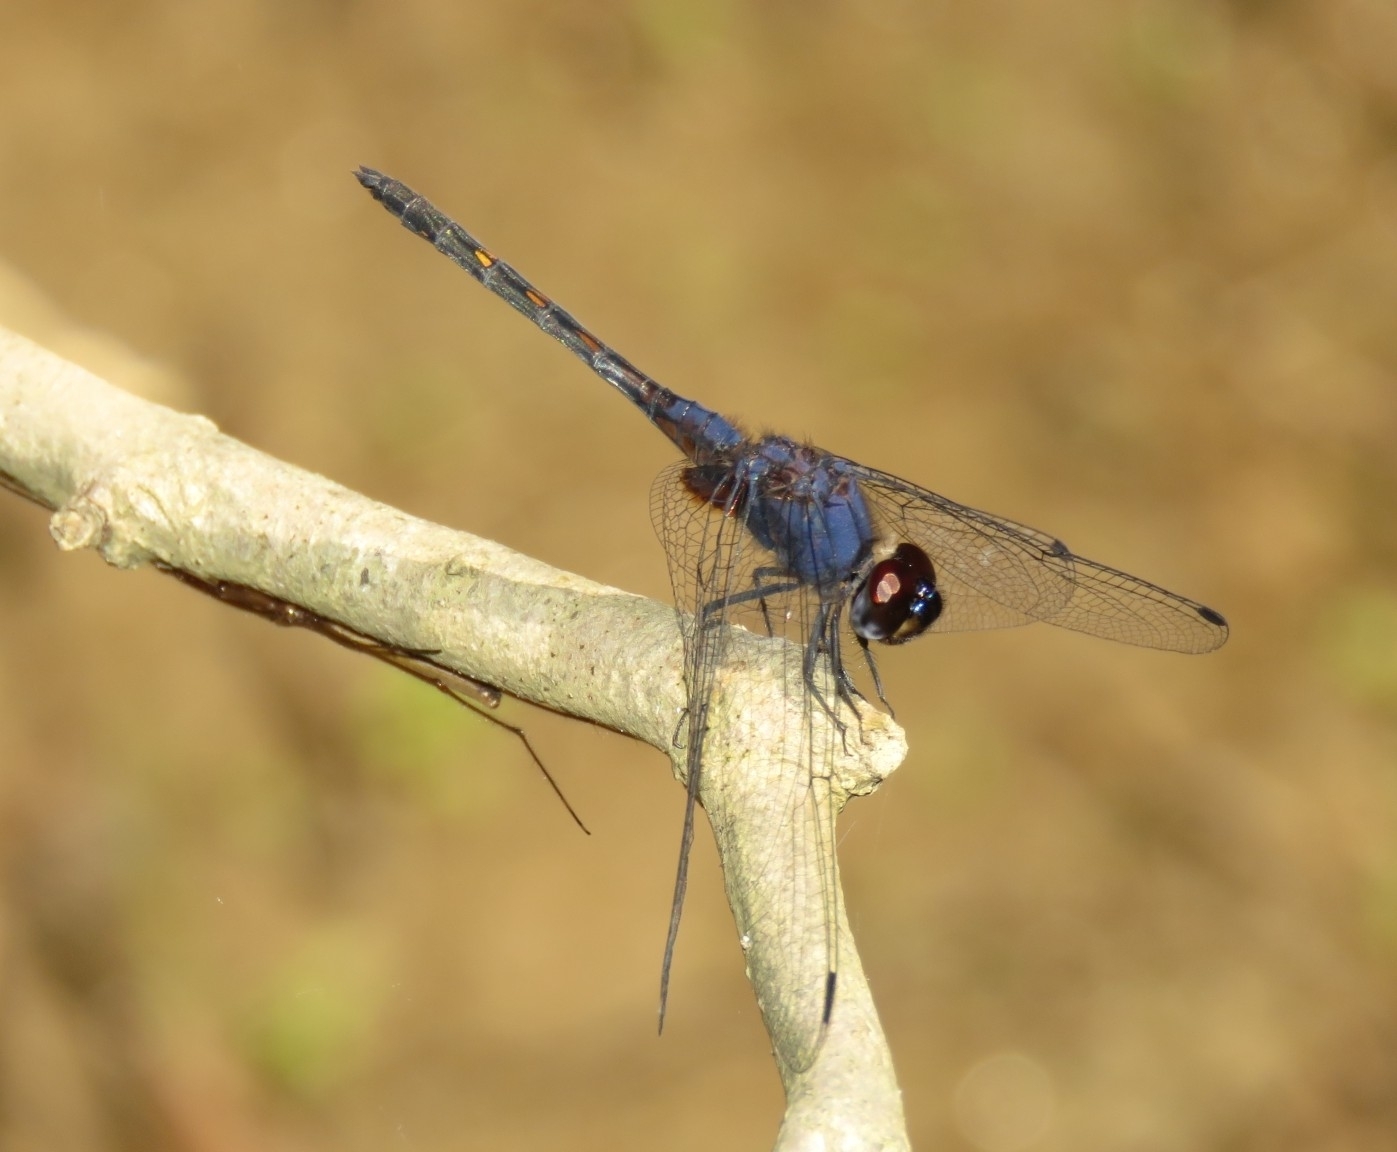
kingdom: Animalia
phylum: Arthropoda
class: Insecta
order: Odonata
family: Libellulidae
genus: Trithemis
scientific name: Trithemis festiva
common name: Indigo dropwing
